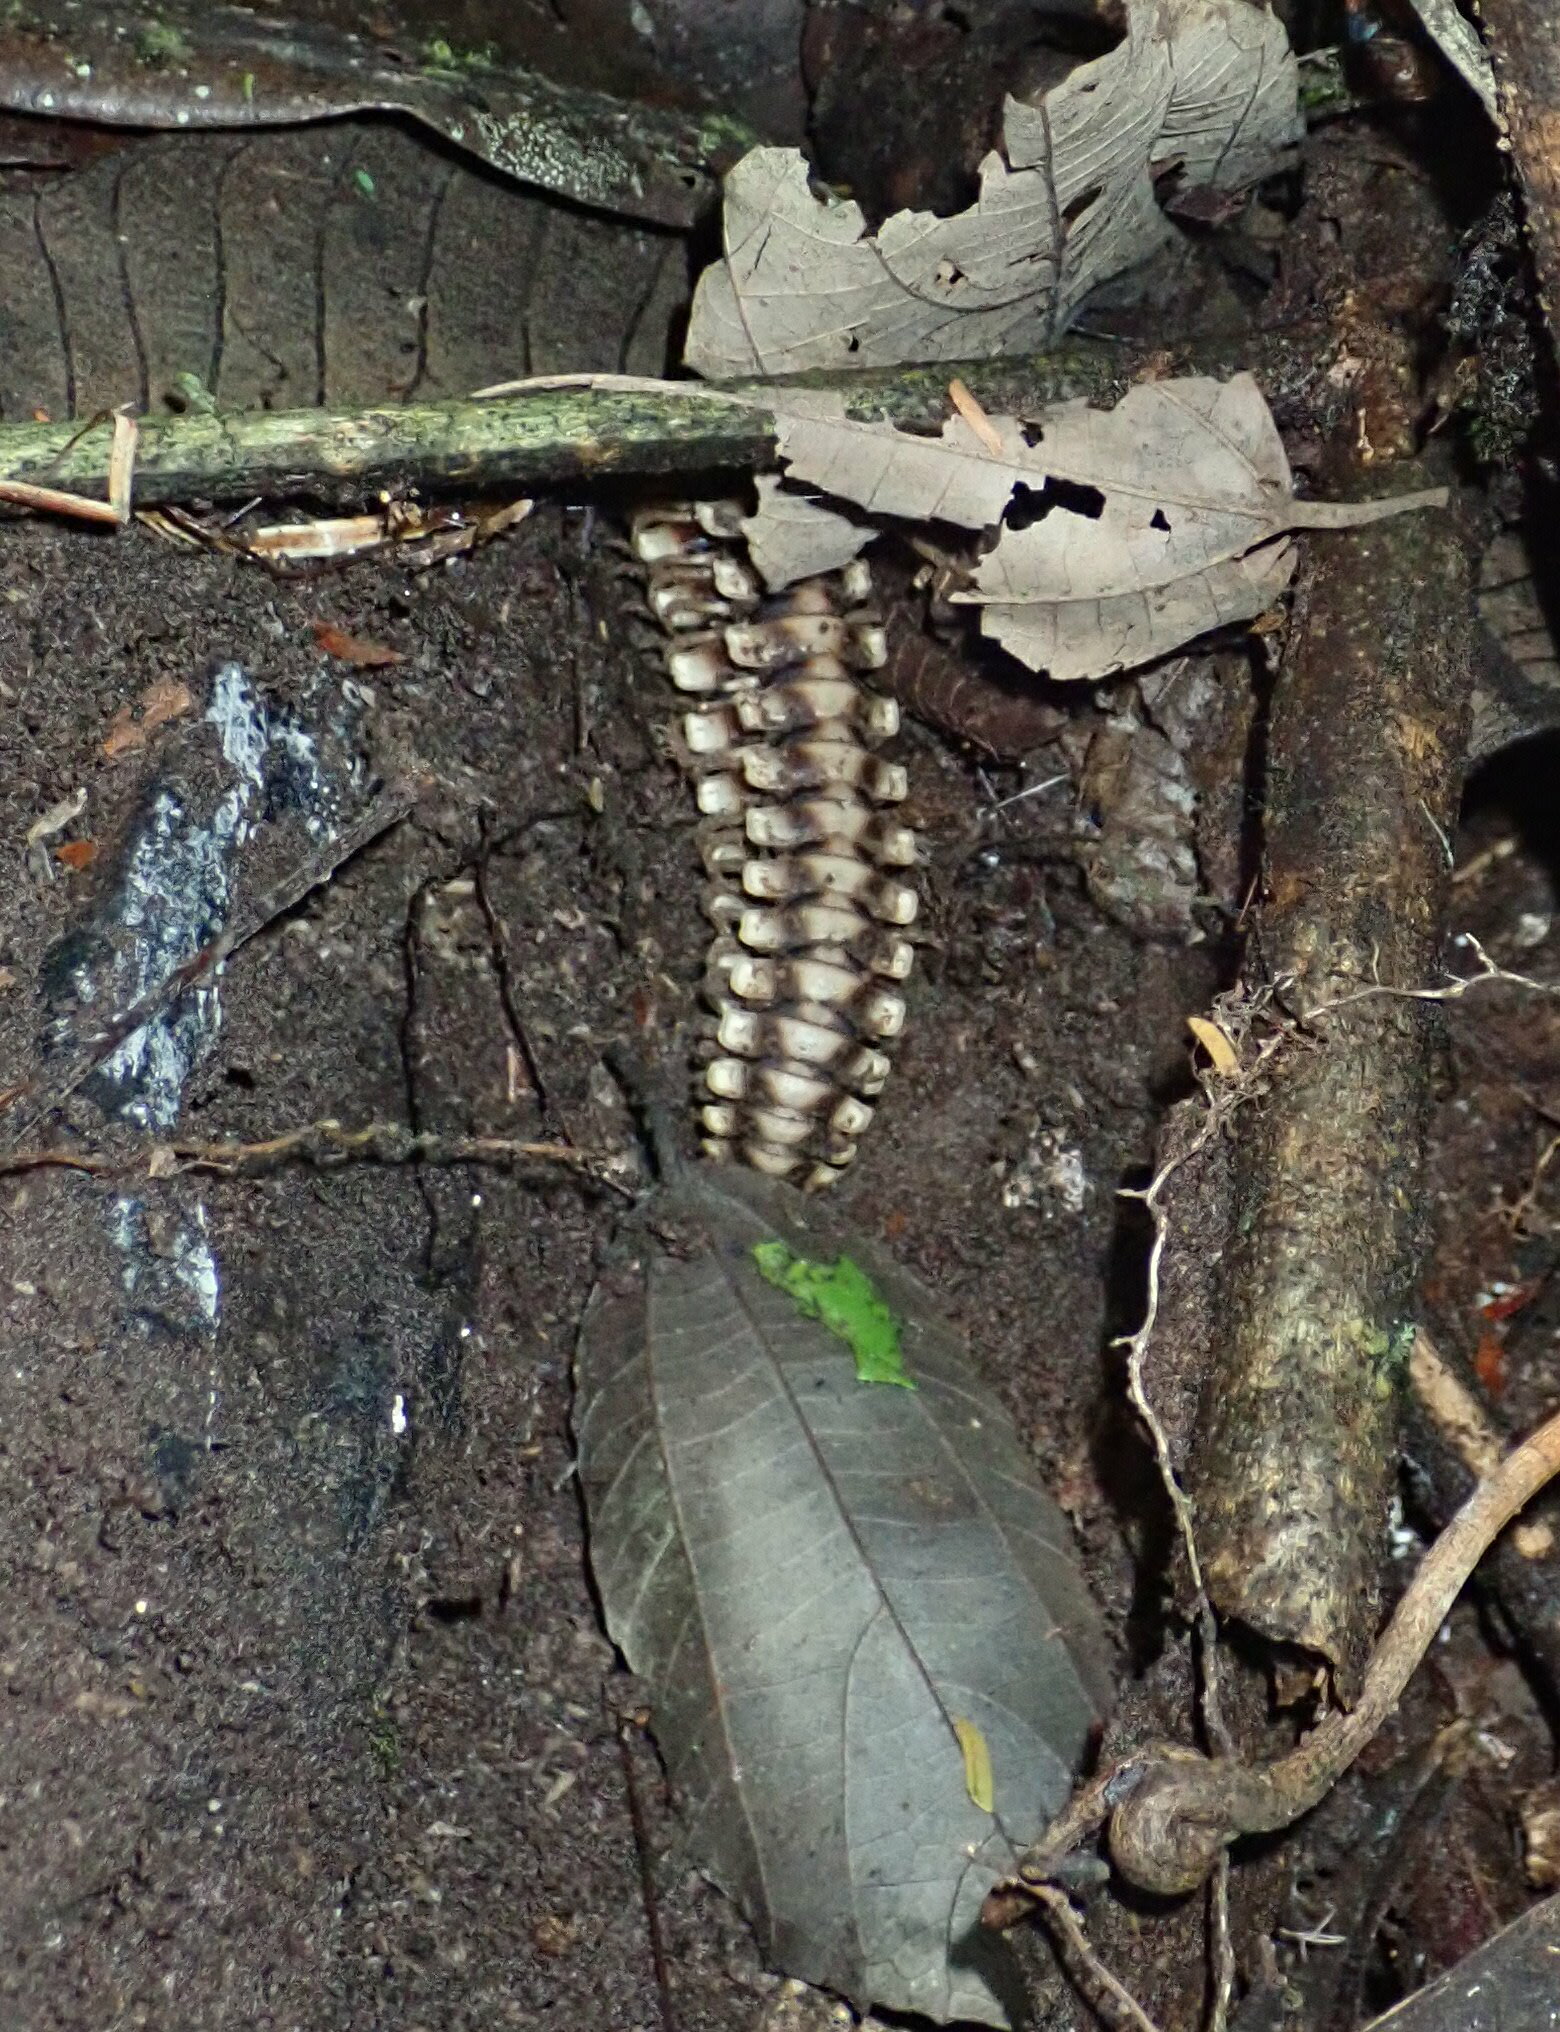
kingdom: Animalia
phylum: Arthropoda
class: Diplopoda
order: Polydesmida
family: Platyrhacidae
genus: Nyssodesmus
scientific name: Nyssodesmus python
